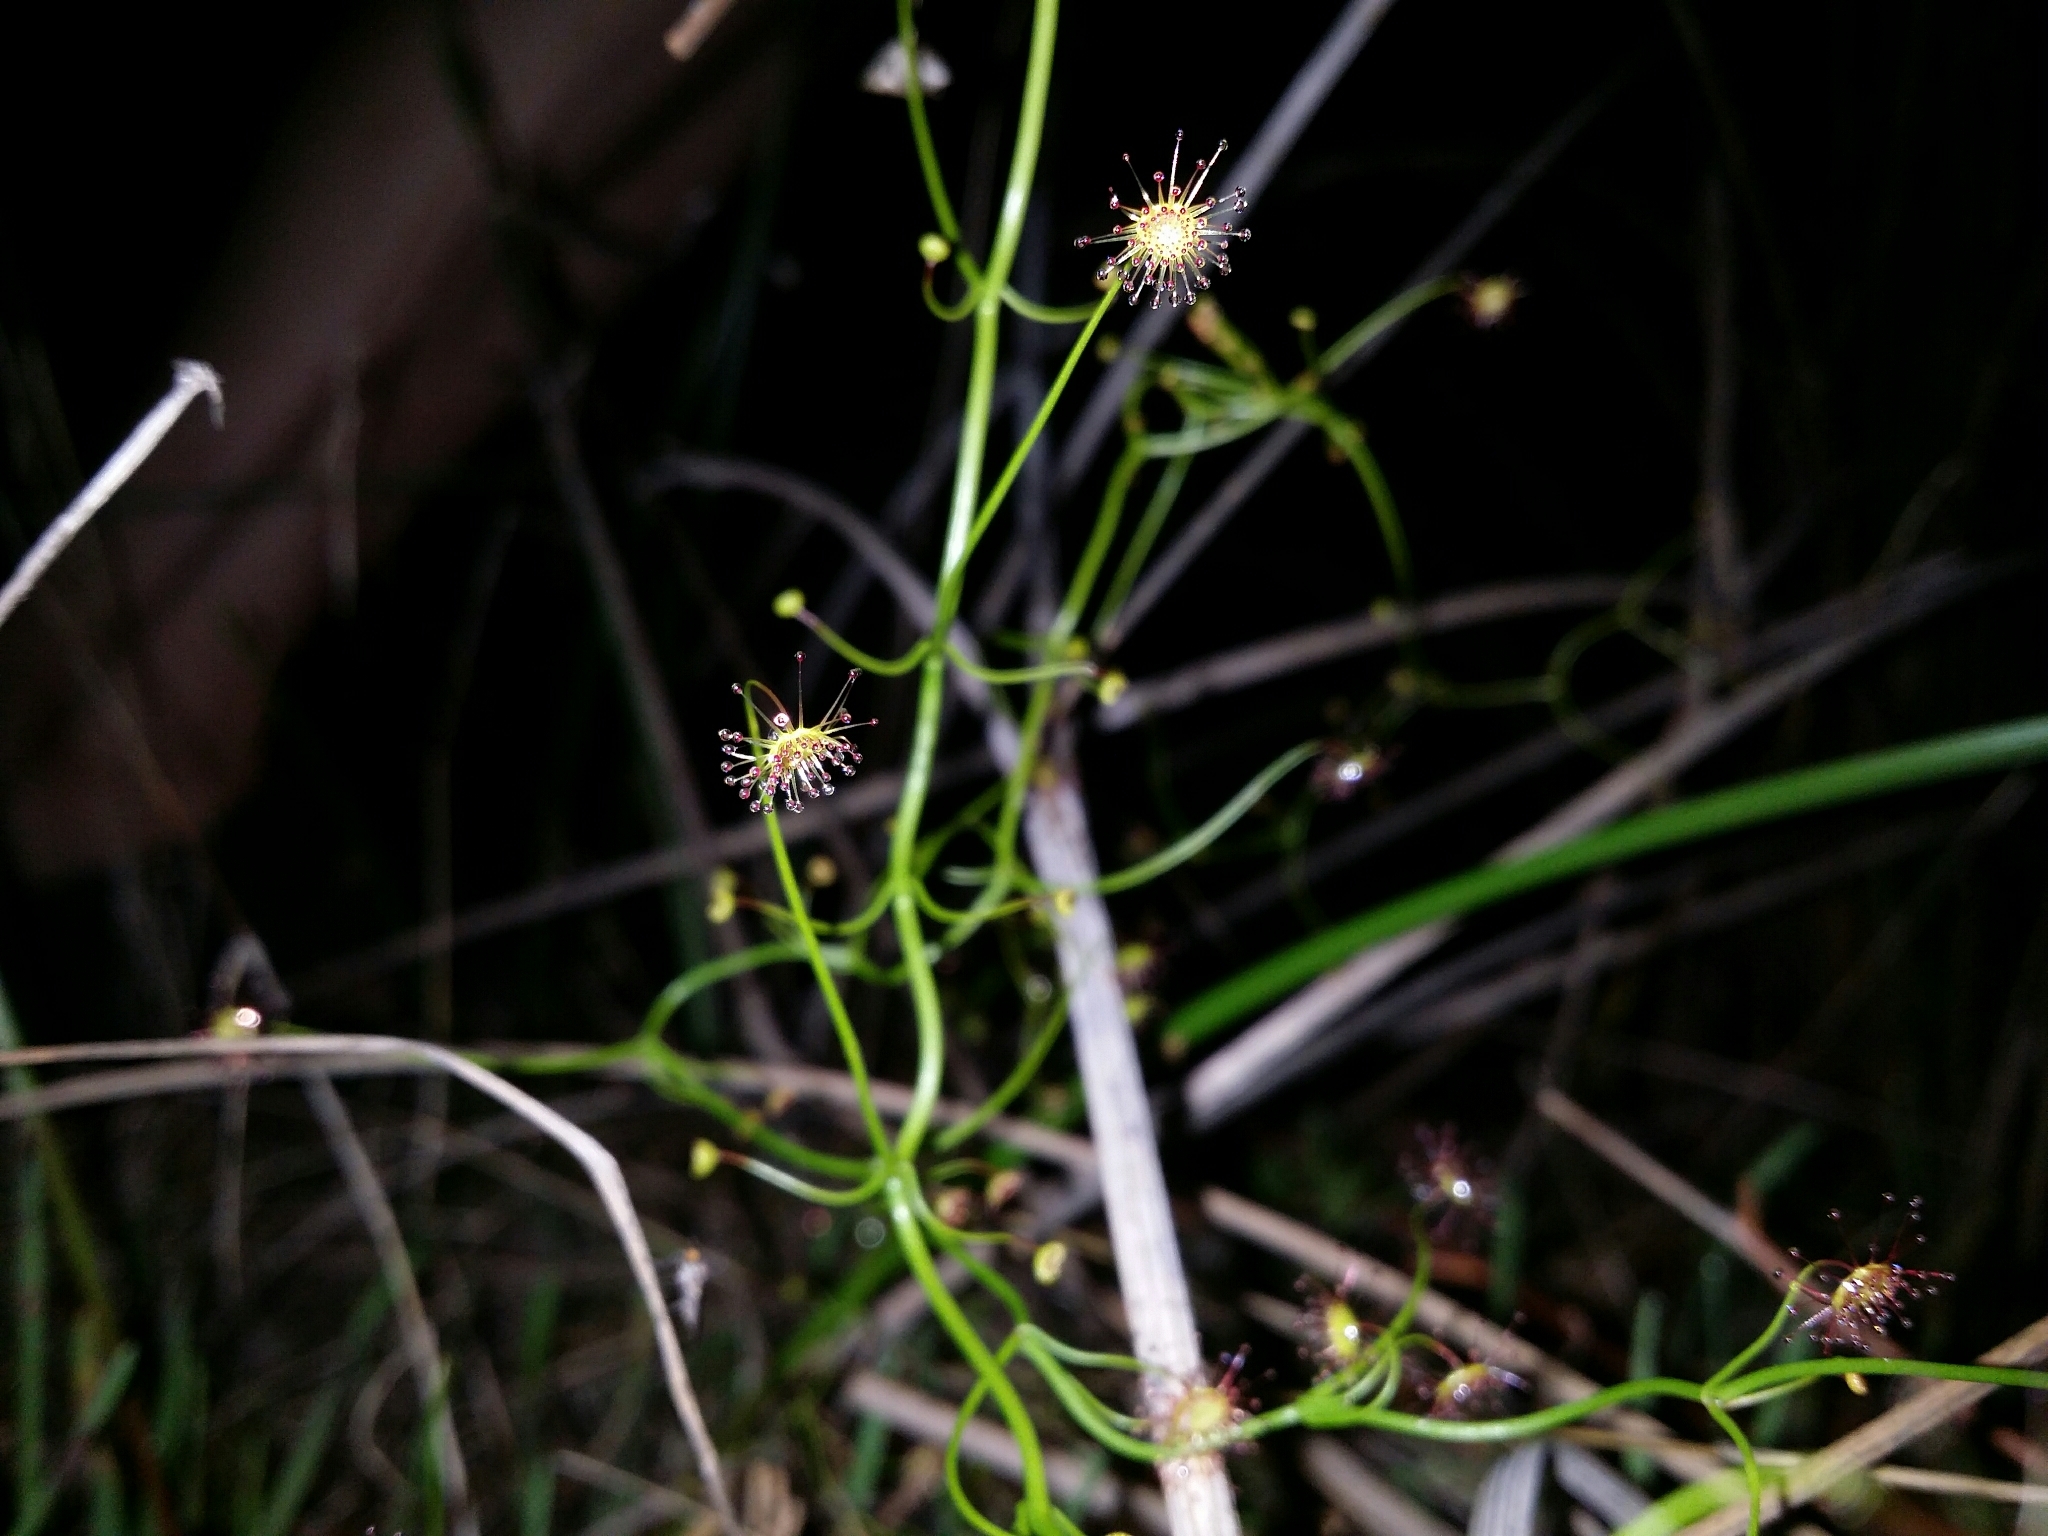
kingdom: Plantae
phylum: Tracheophyta
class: Magnoliopsida
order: Caryophyllales
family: Droseraceae
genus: Drosera
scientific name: Drosera pallida
